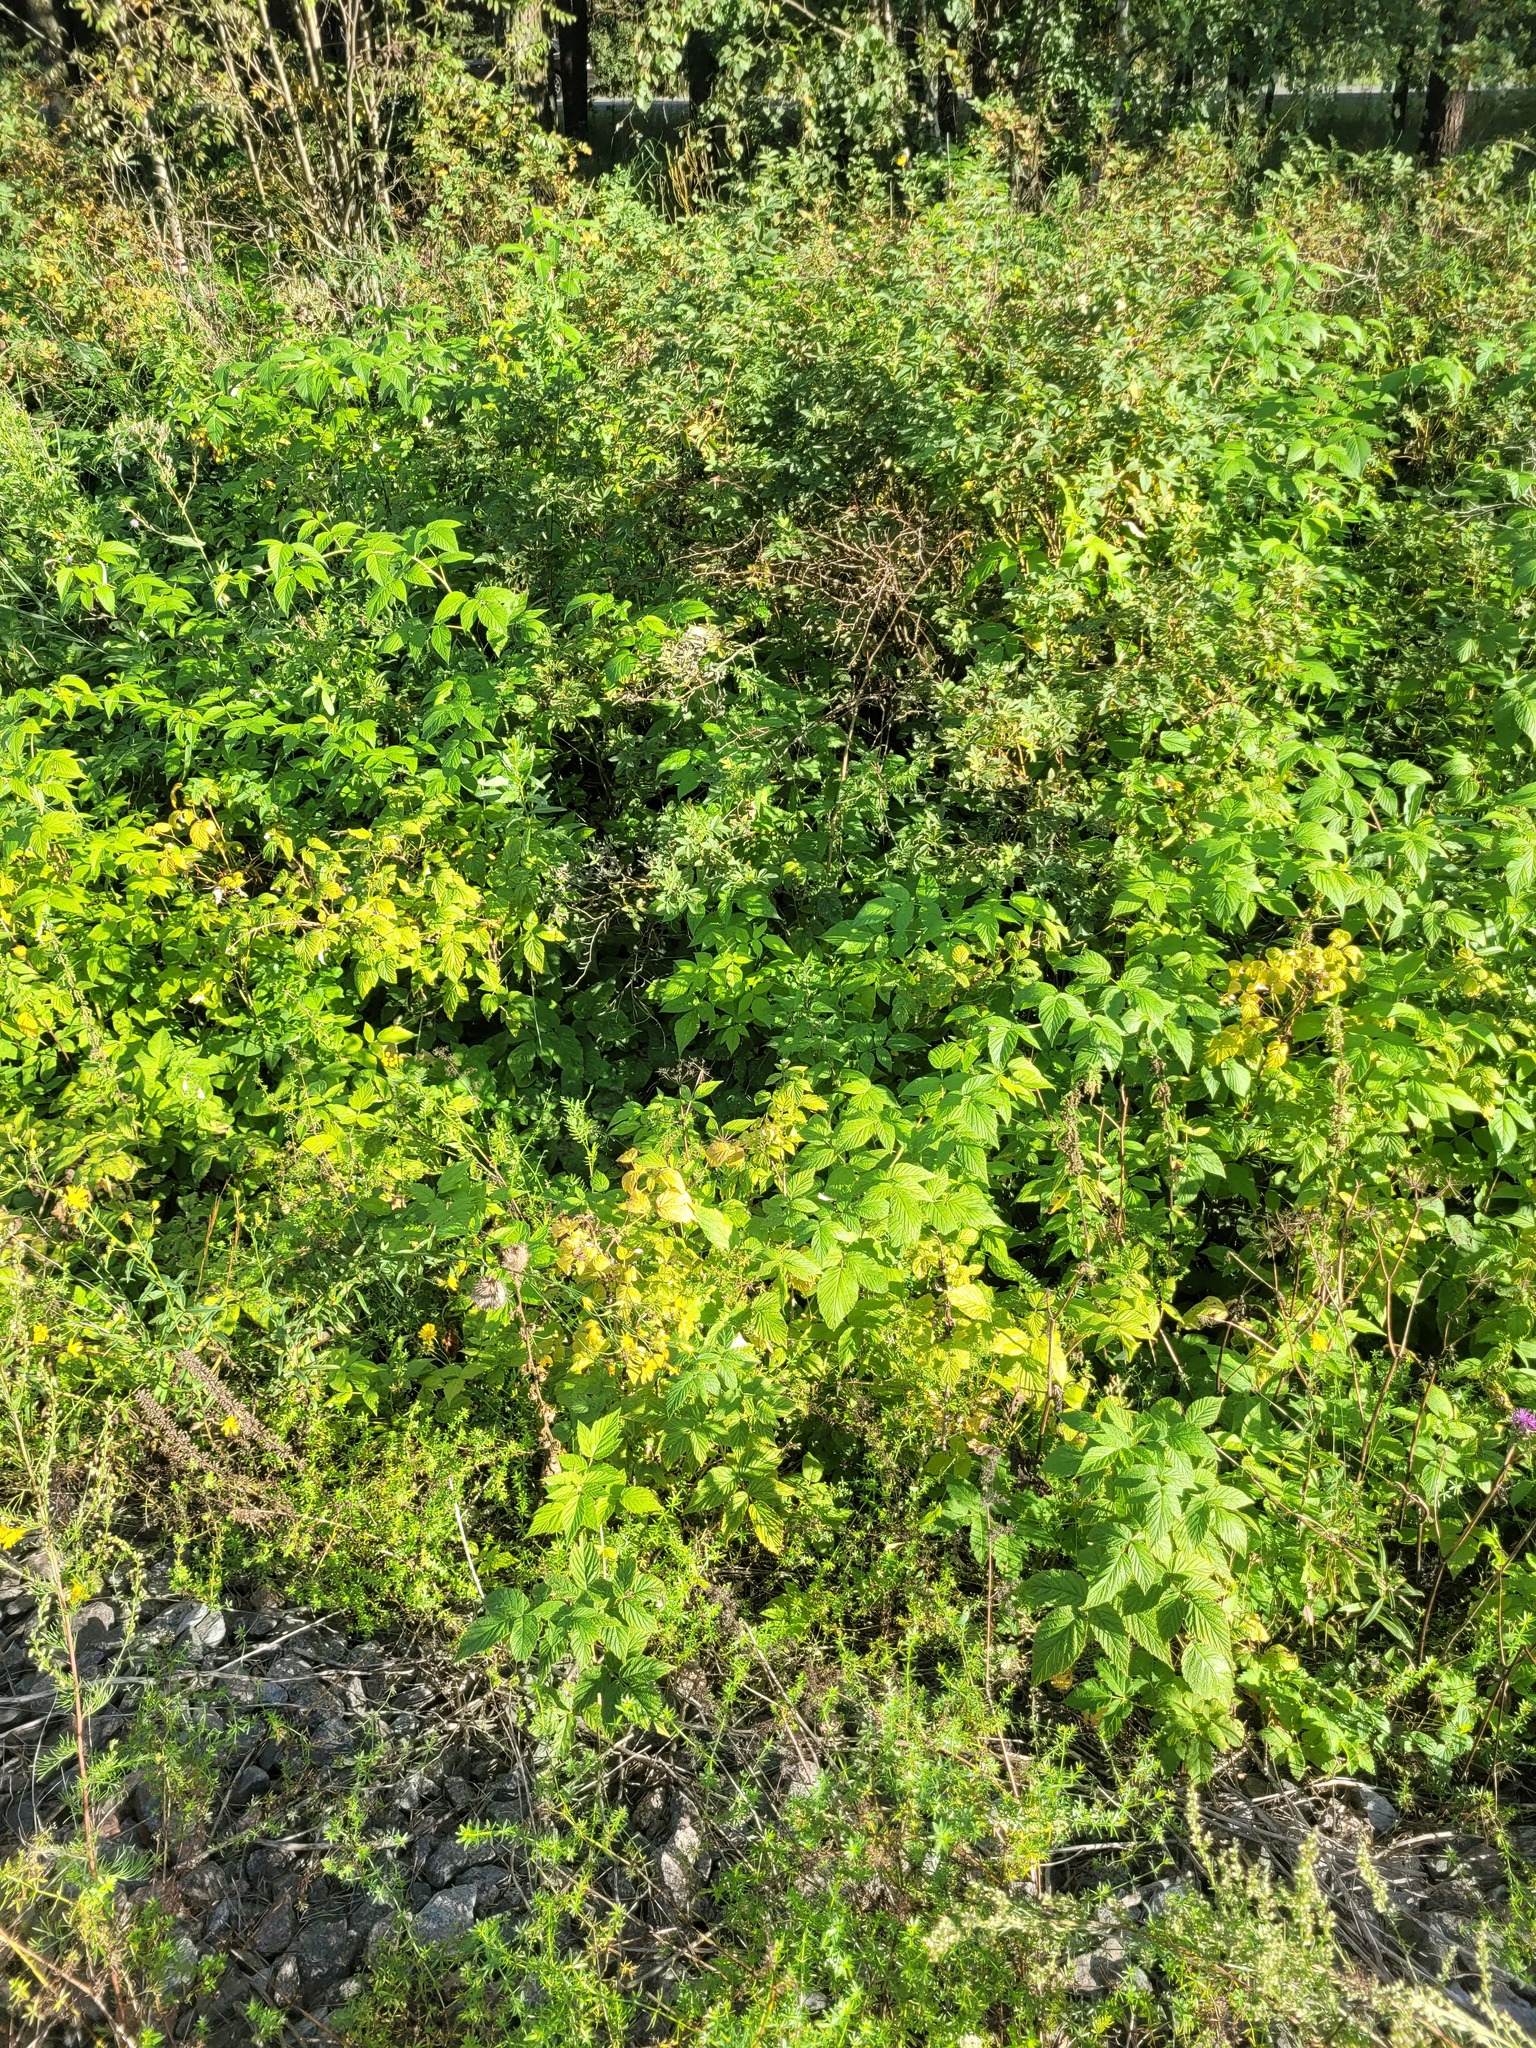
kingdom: Plantae
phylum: Tracheophyta
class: Magnoliopsida
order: Rosales
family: Rosaceae
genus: Rubus
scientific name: Rubus idaeus
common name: Raspberry
